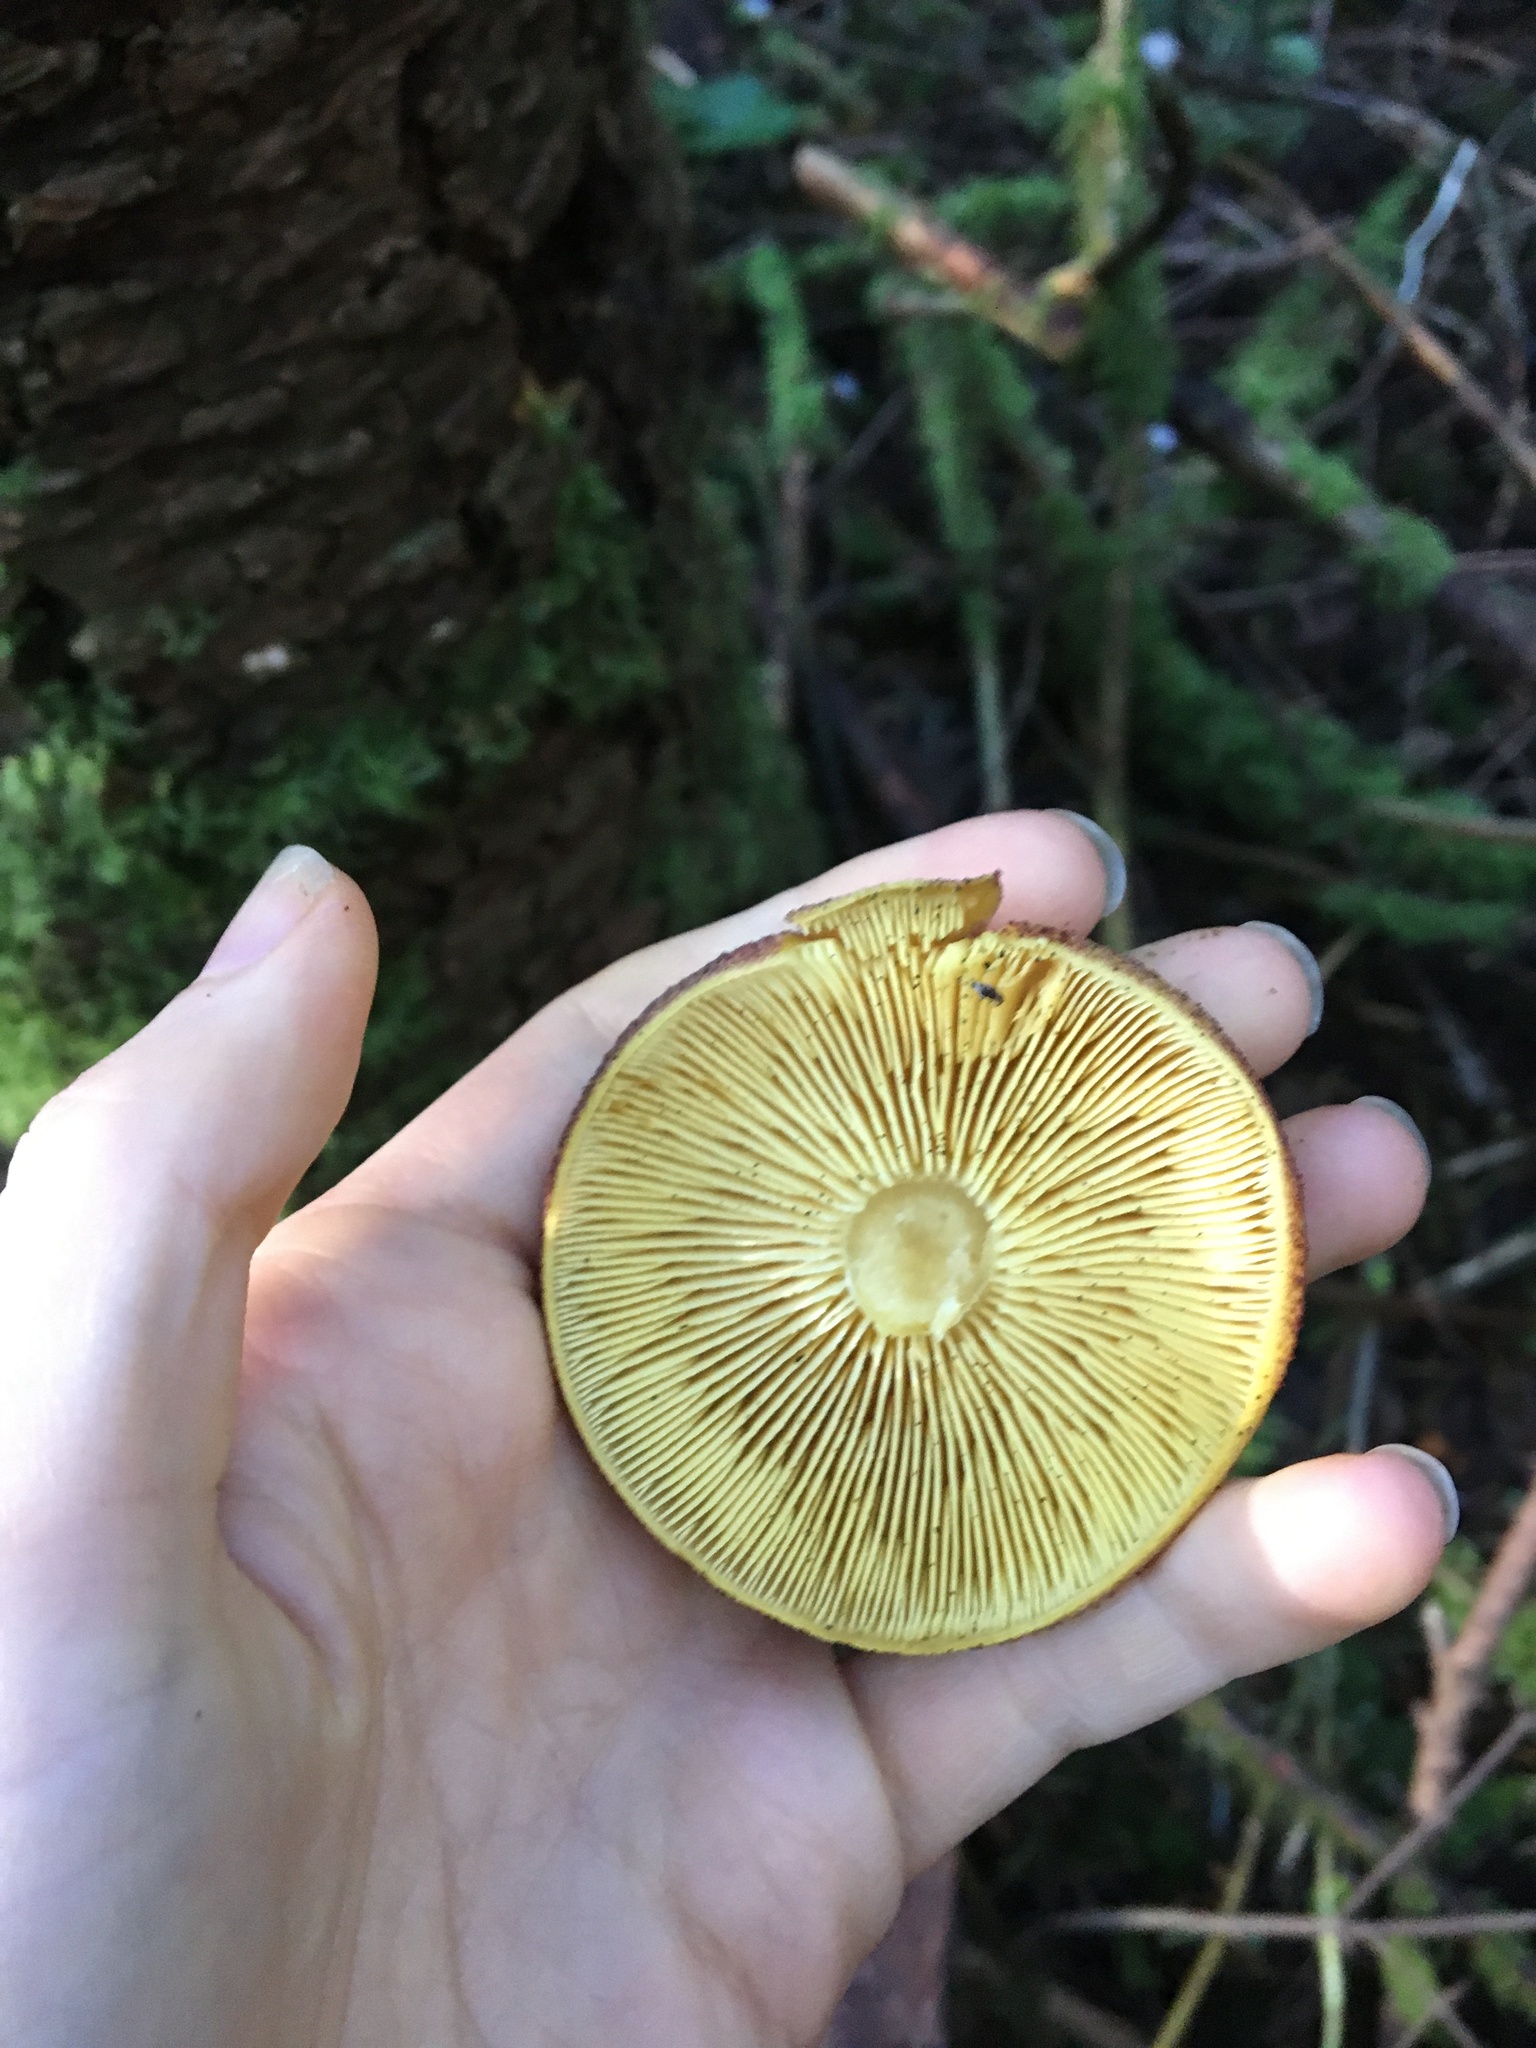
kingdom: Fungi
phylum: Basidiomycota
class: Agaricomycetes
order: Agaricales
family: Tricholomataceae
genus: Tricholomopsis
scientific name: Tricholomopsis rutilans
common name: Plums and custard
